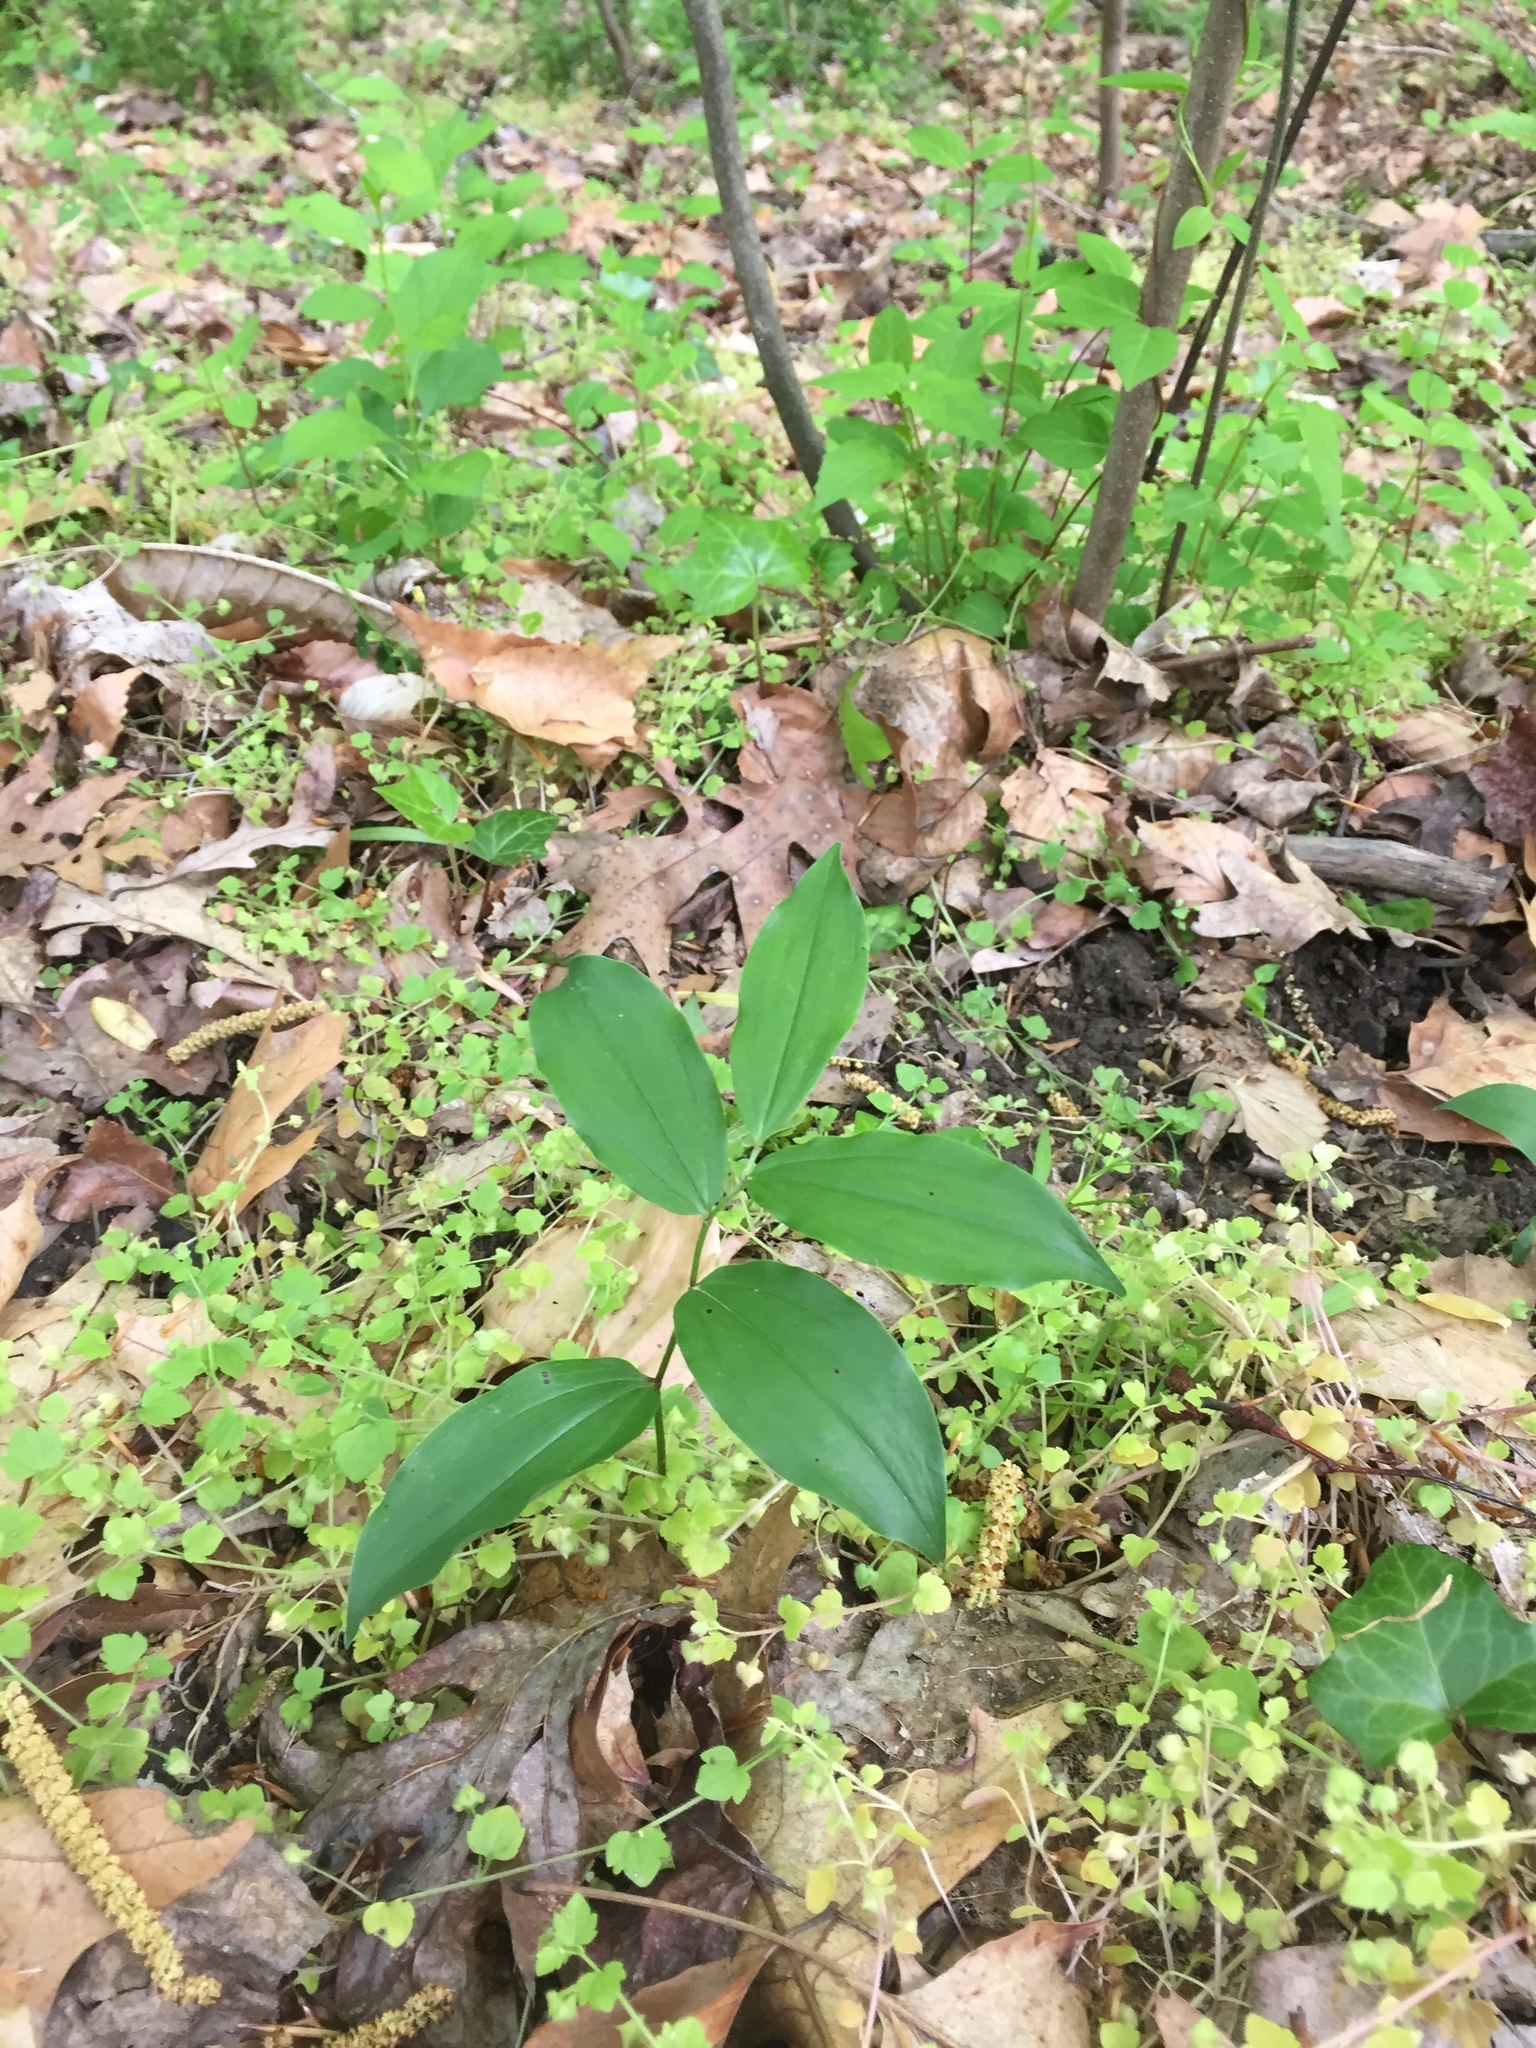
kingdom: Plantae
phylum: Tracheophyta
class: Liliopsida
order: Asparagales
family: Asparagaceae
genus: Maianthemum
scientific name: Maianthemum racemosum
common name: False spikenard
